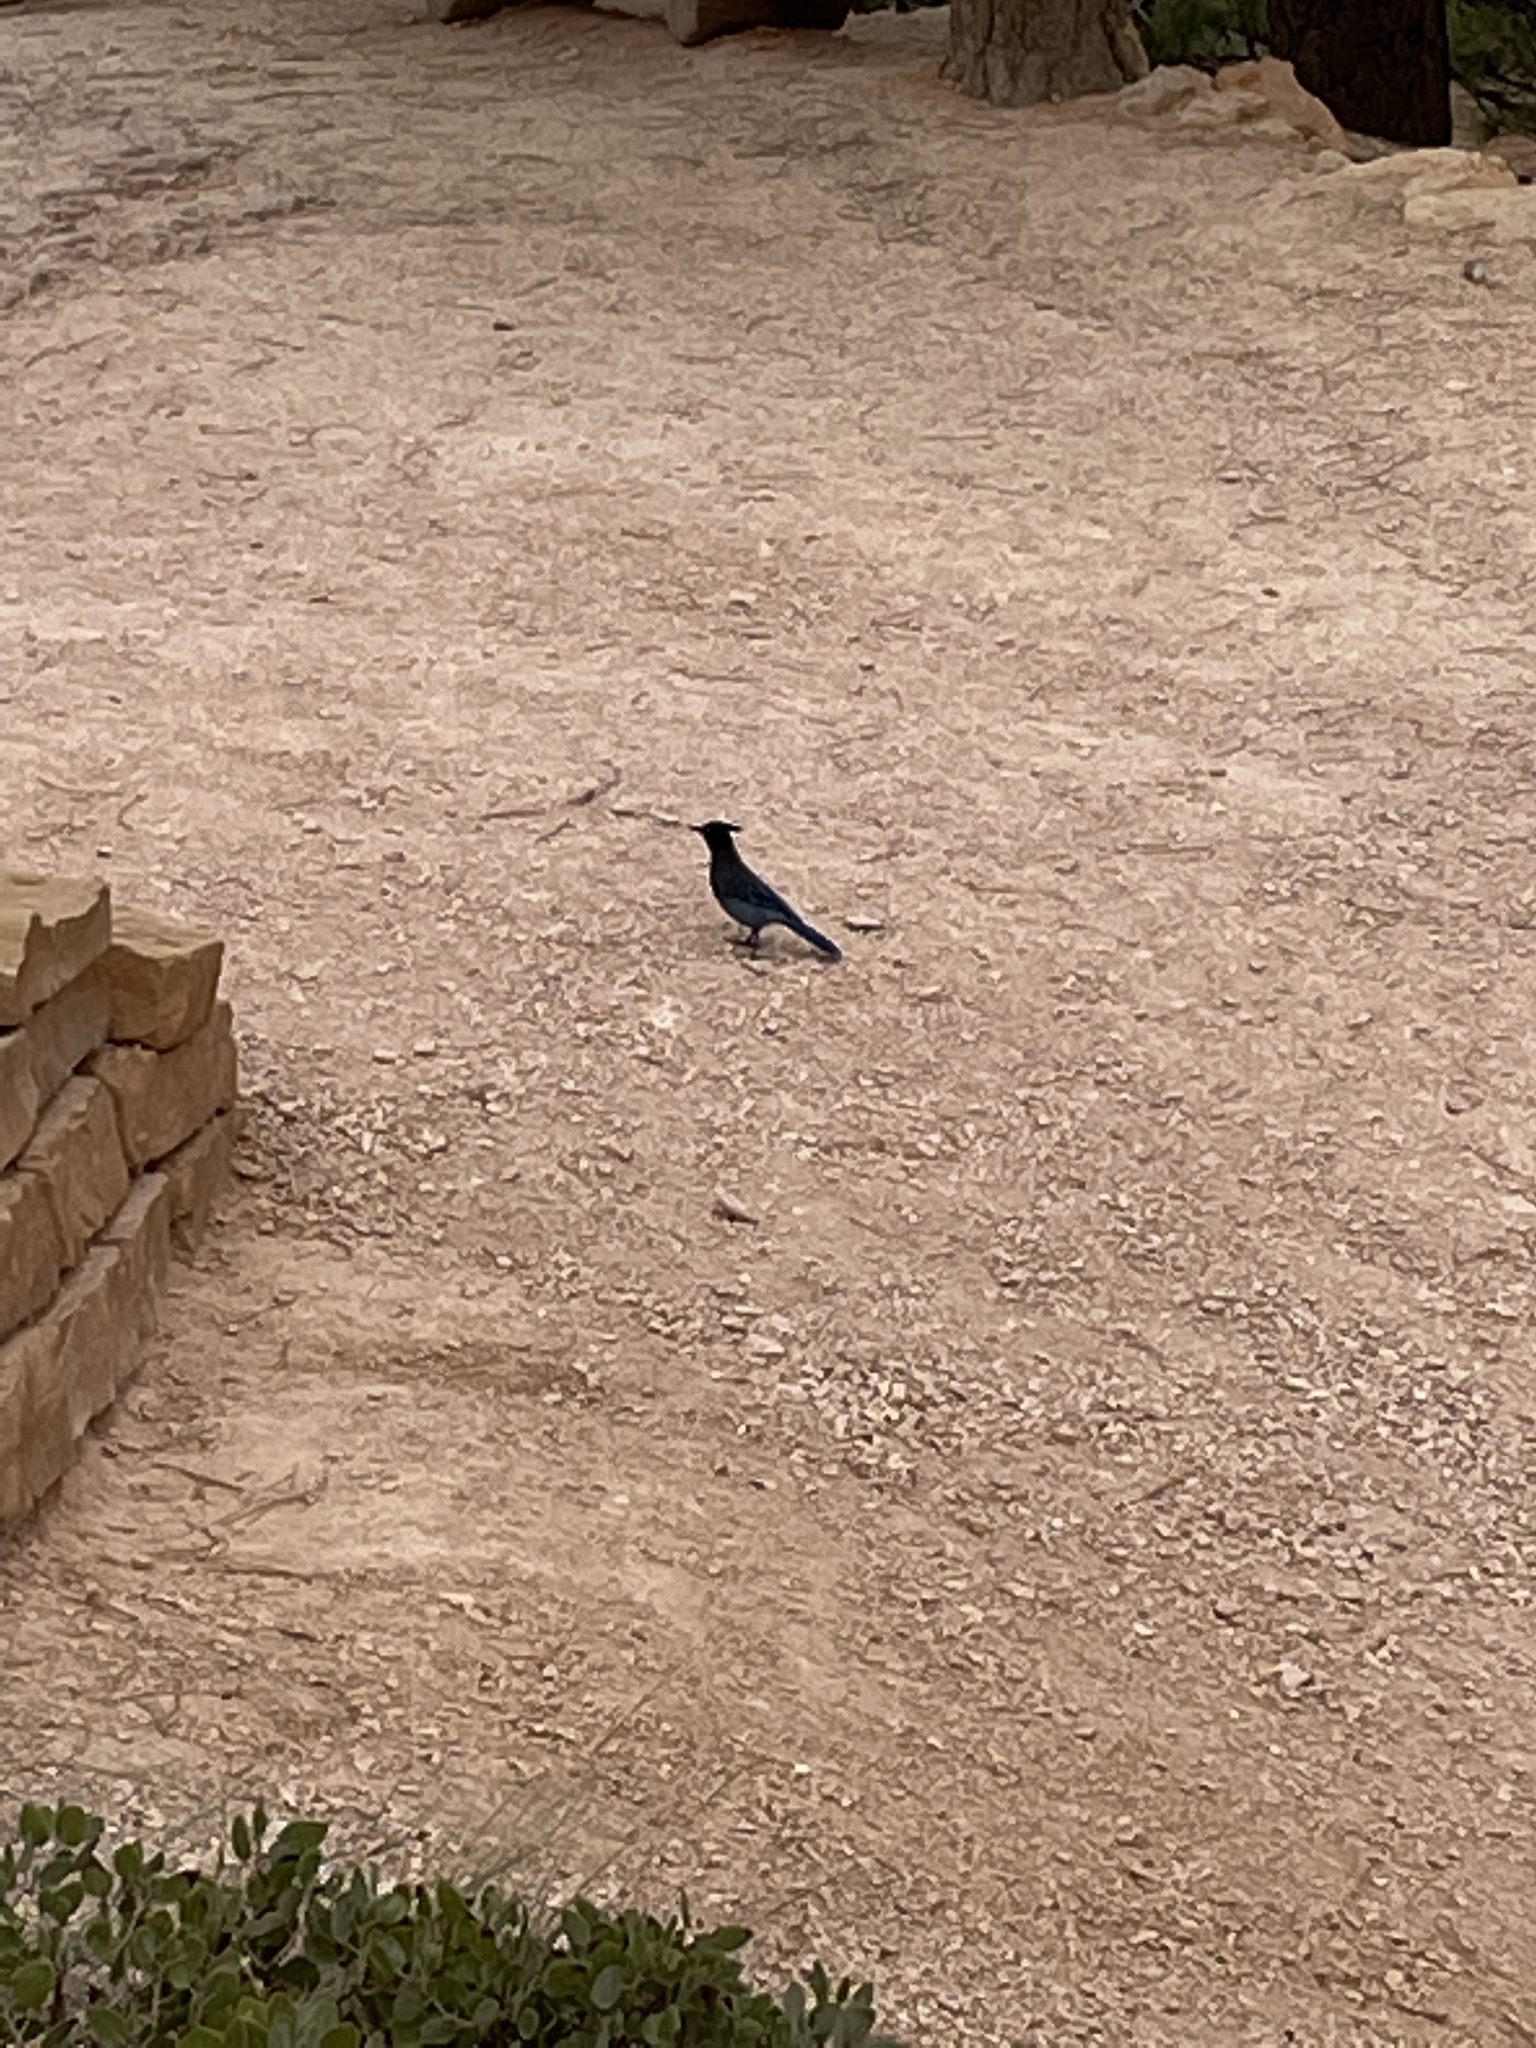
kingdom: Animalia
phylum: Chordata
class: Aves
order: Passeriformes
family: Corvidae
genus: Cyanocitta
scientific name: Cyanocitta stelleri
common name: Steller's jay
